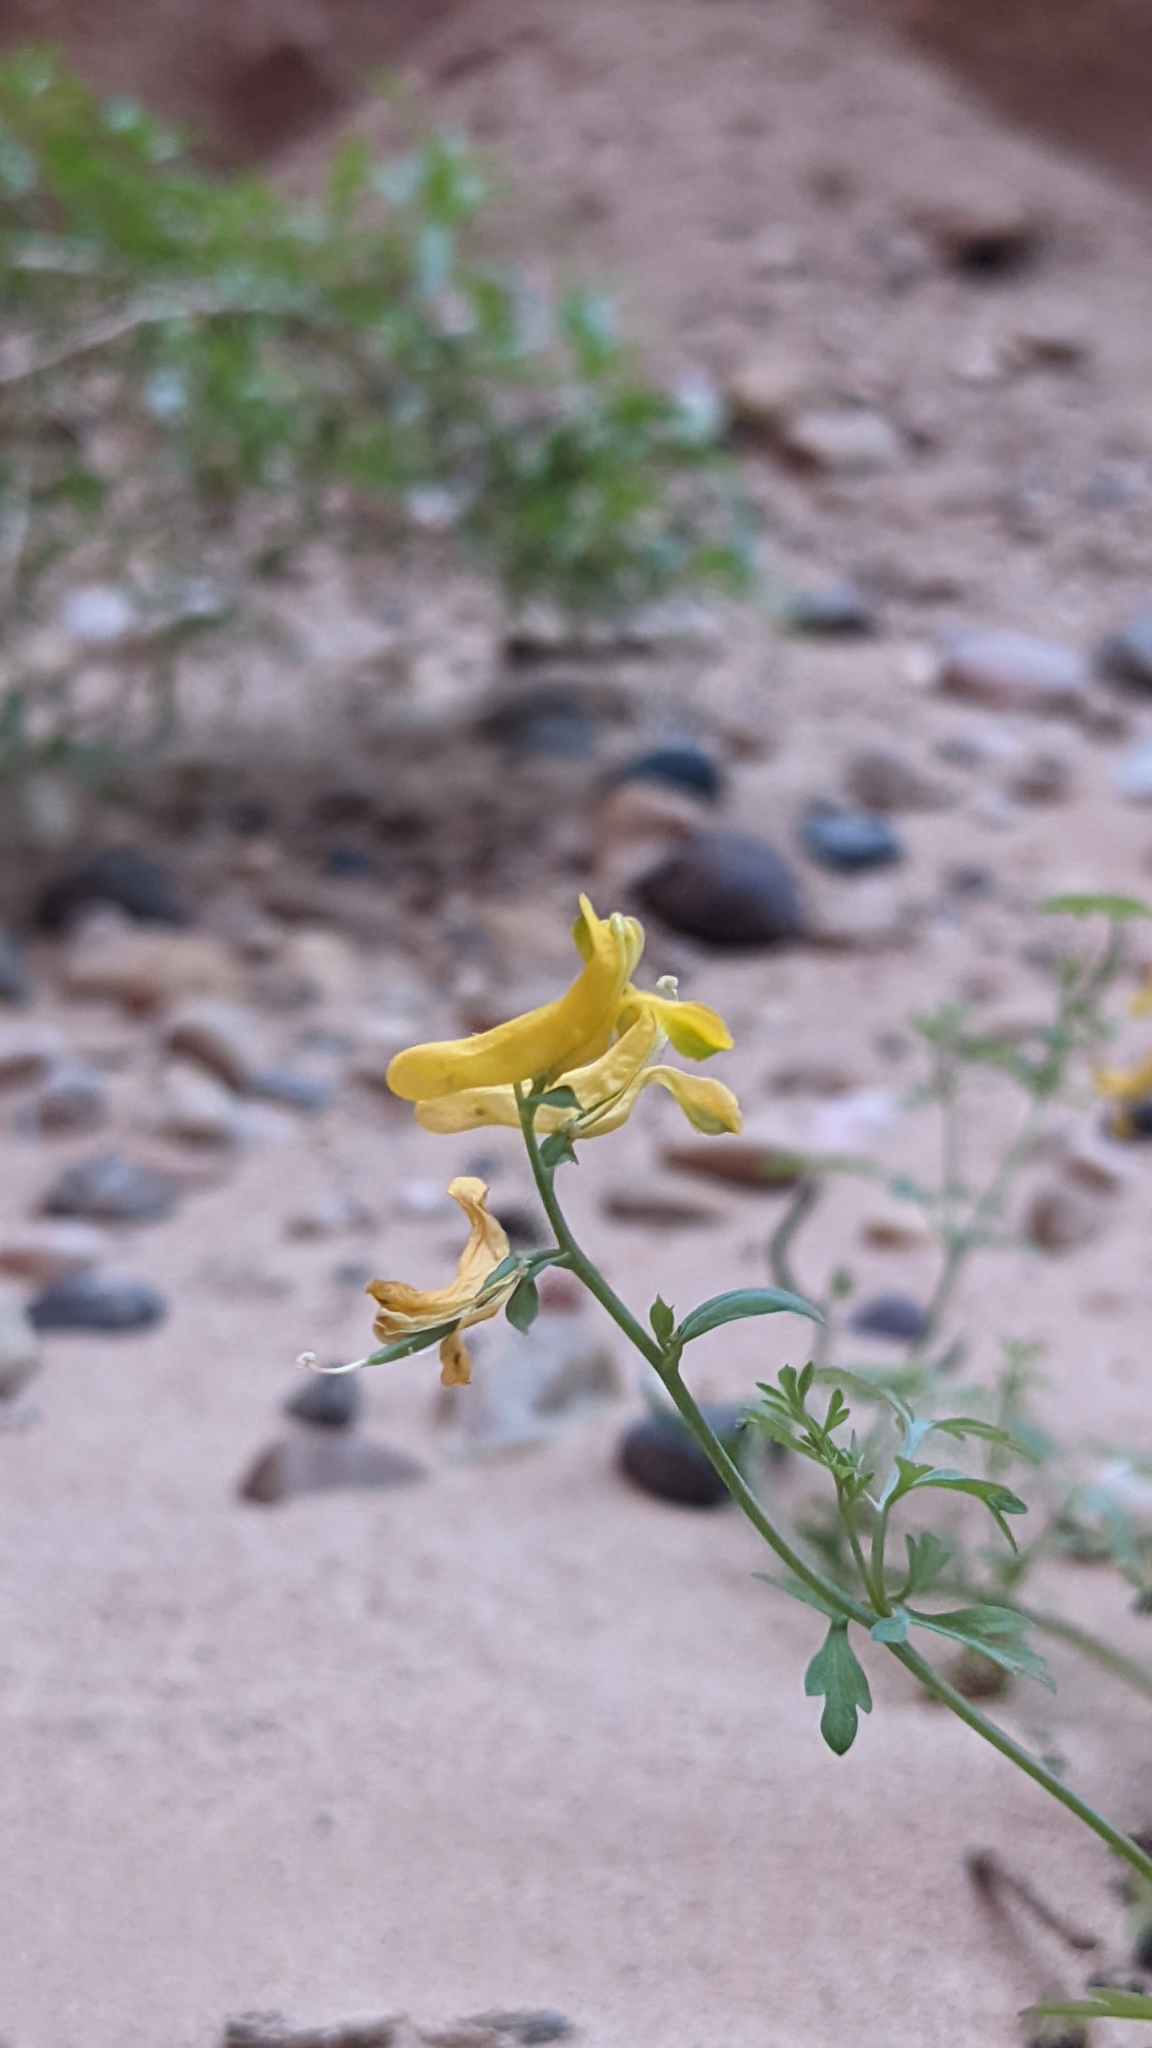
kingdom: Plantae
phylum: Tracheophyta
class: Magnoliopsida
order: Ranunculales
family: Papaveraceae
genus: Corydalis
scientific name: Corydalis aurea
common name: Golden corydalis
